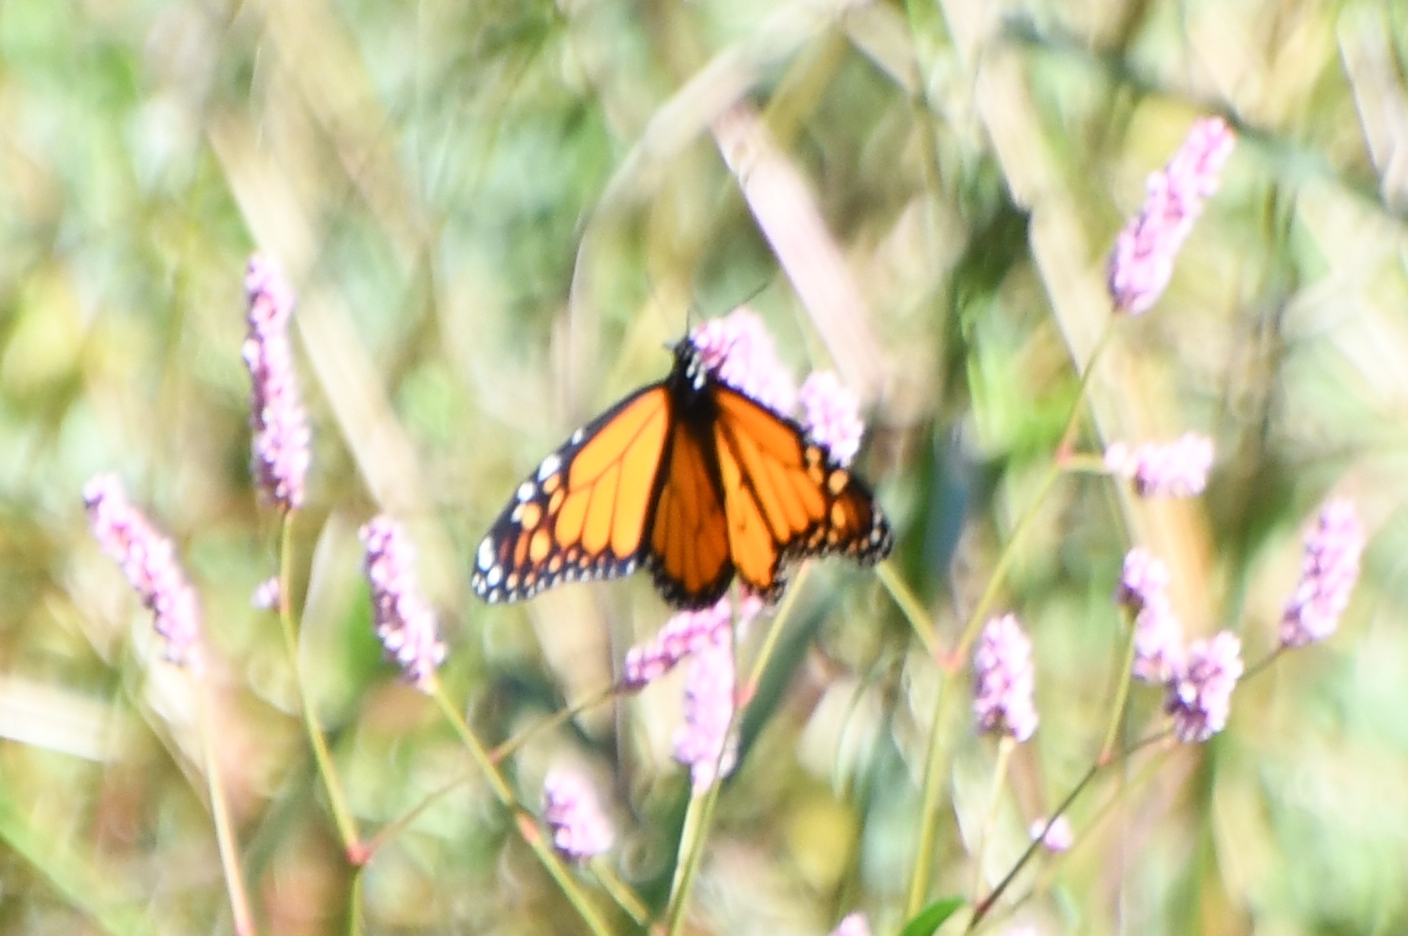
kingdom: Animalia
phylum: Arthropoda
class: Insecta
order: Lepidoptera
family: Nymphalidae
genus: Danaus
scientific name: Danaus plexippus
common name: Monarch
